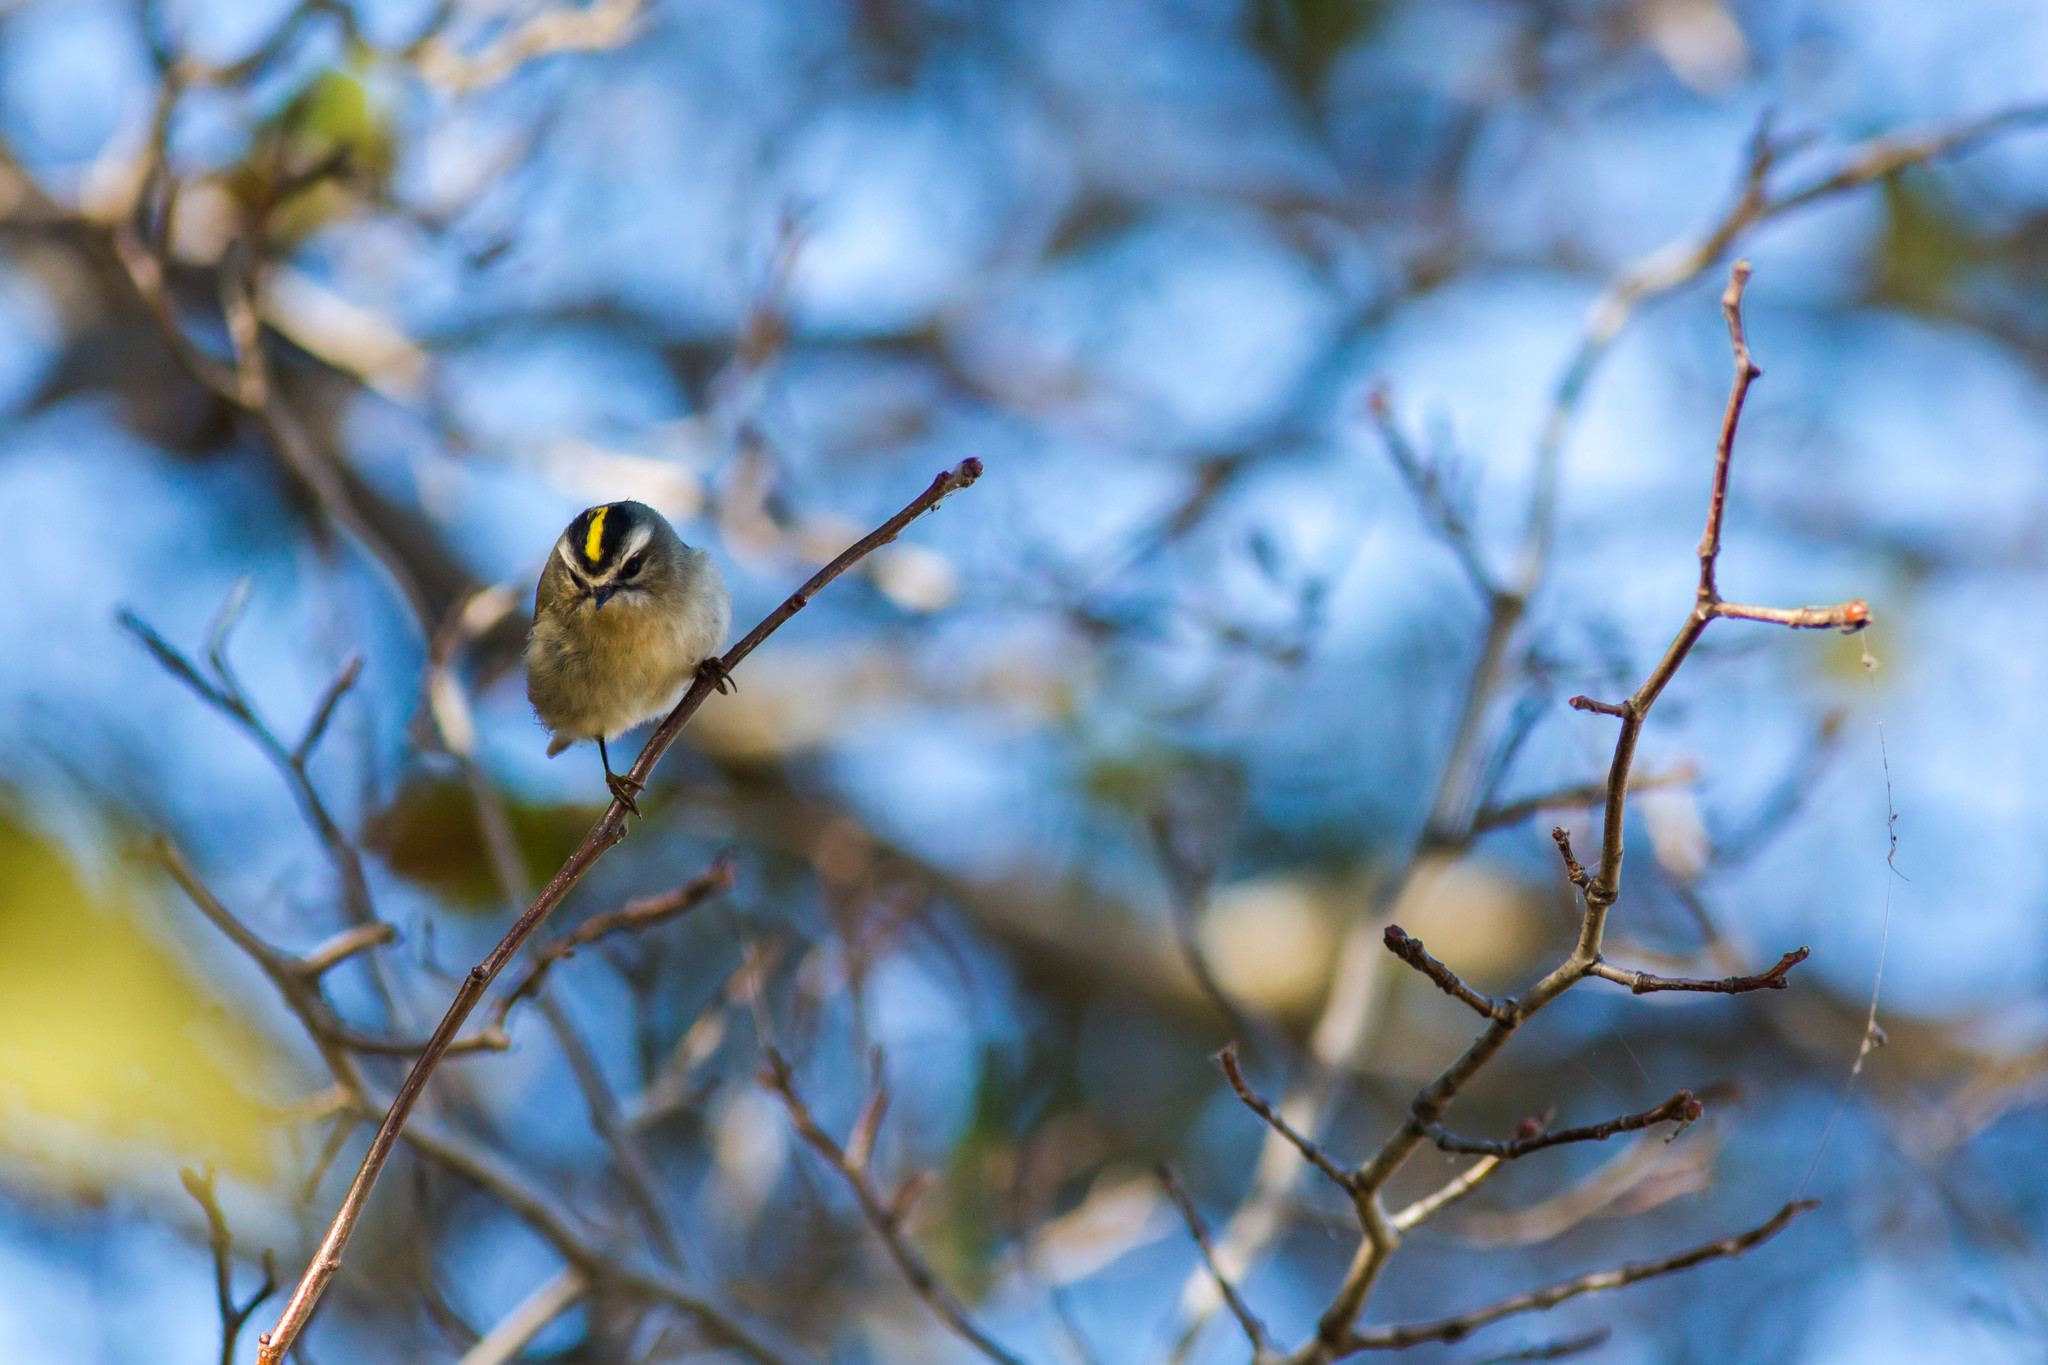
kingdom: Animalia
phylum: Chordata
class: Aves
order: Passeriformes
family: Regulidae
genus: Regulus
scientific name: Regulus satrapa
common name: Golden-crowned kinglet
